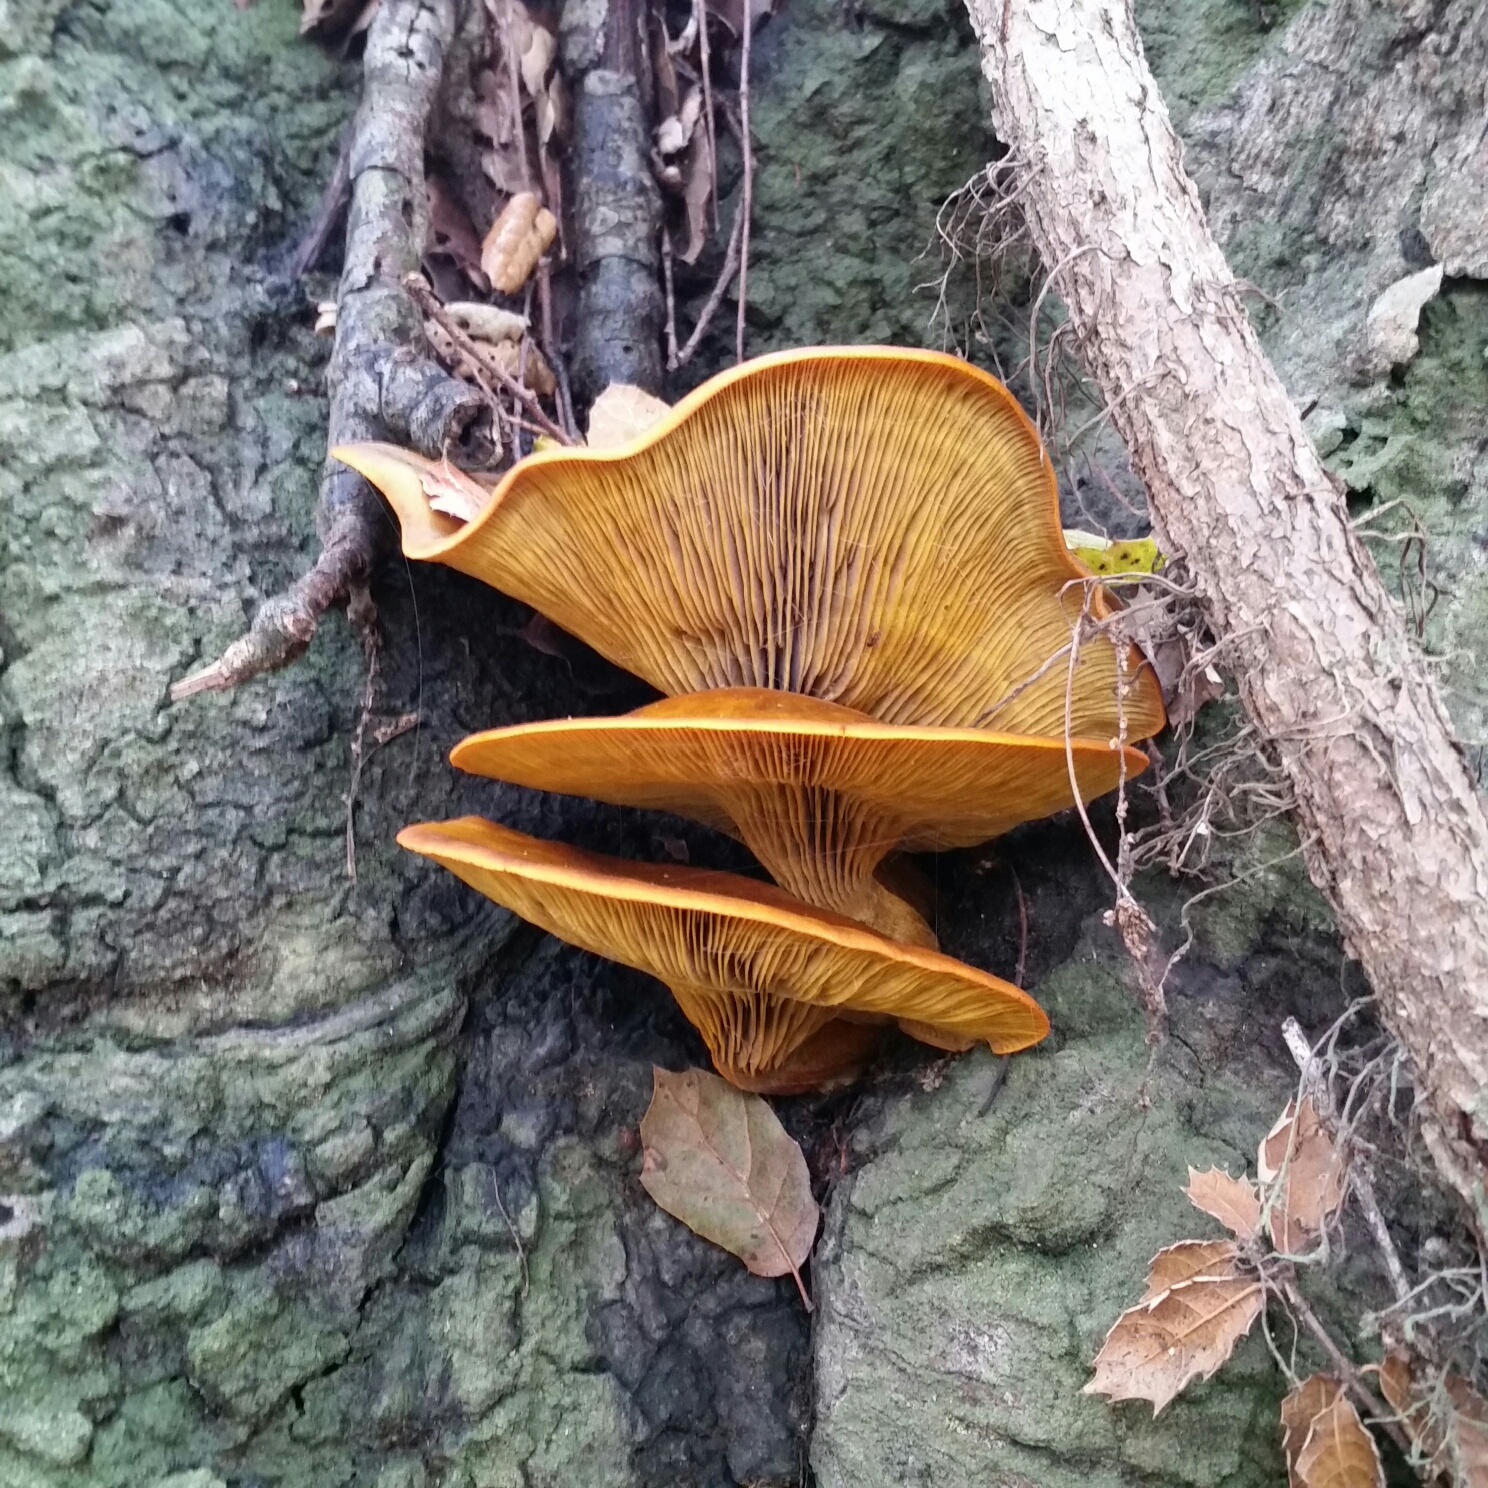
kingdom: Fungi
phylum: Basidiomycota
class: Agaricomycetes
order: Agaricales
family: Omphalotaceae
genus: Omphalotus
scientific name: Omphalotus olivascens
